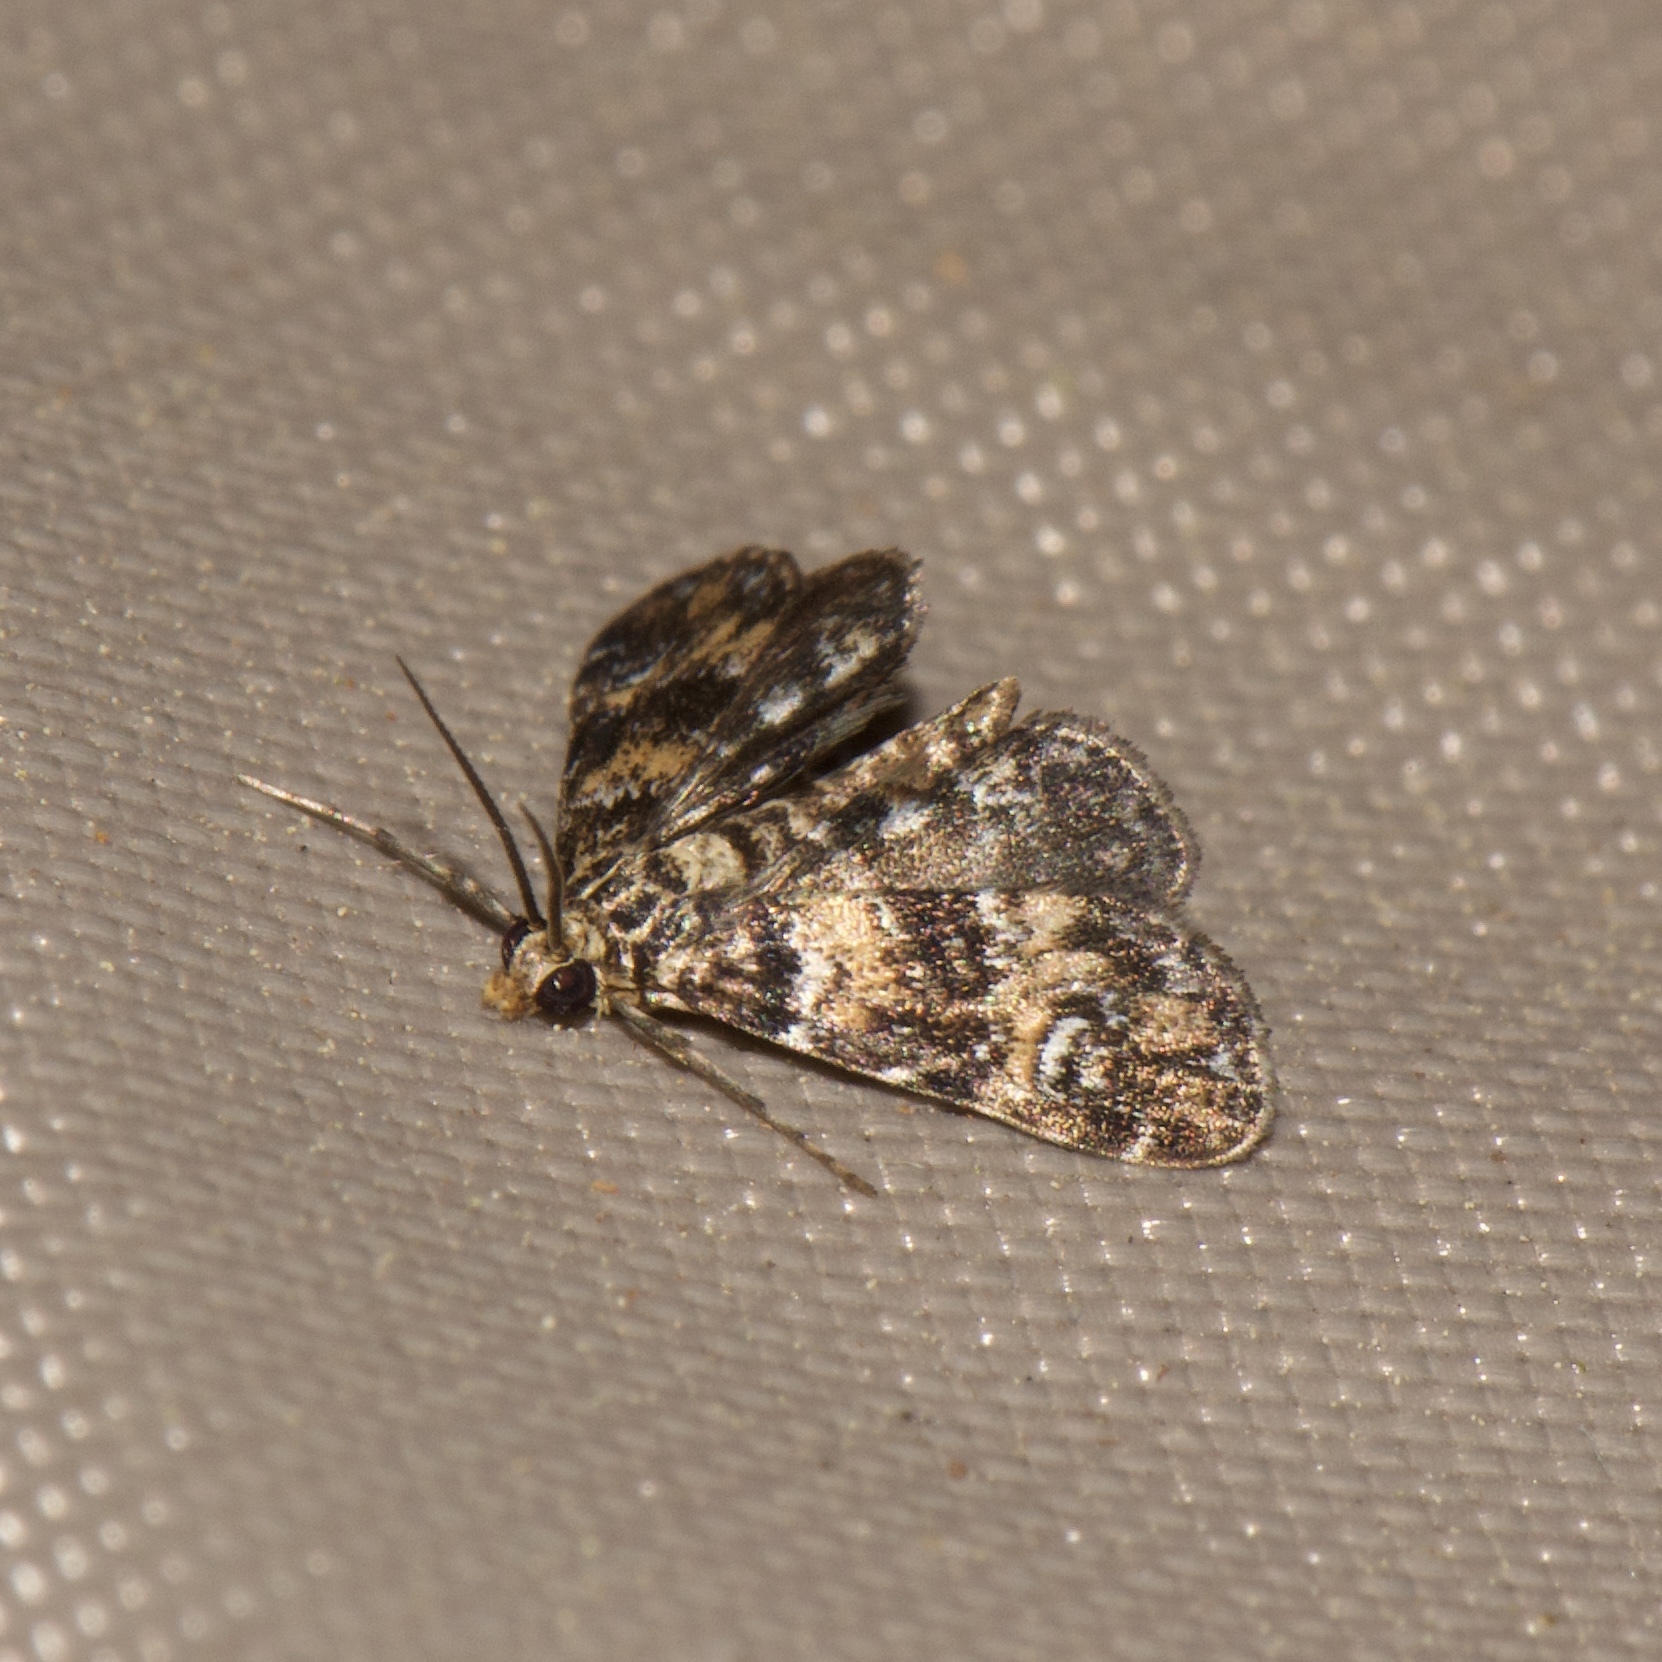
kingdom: Animalia
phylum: Arthropoda
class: Insecta
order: Lepidoptera
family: Crambidae
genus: Elophila
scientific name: Elophila obliteralis
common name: Waterlily leafcutter moth
